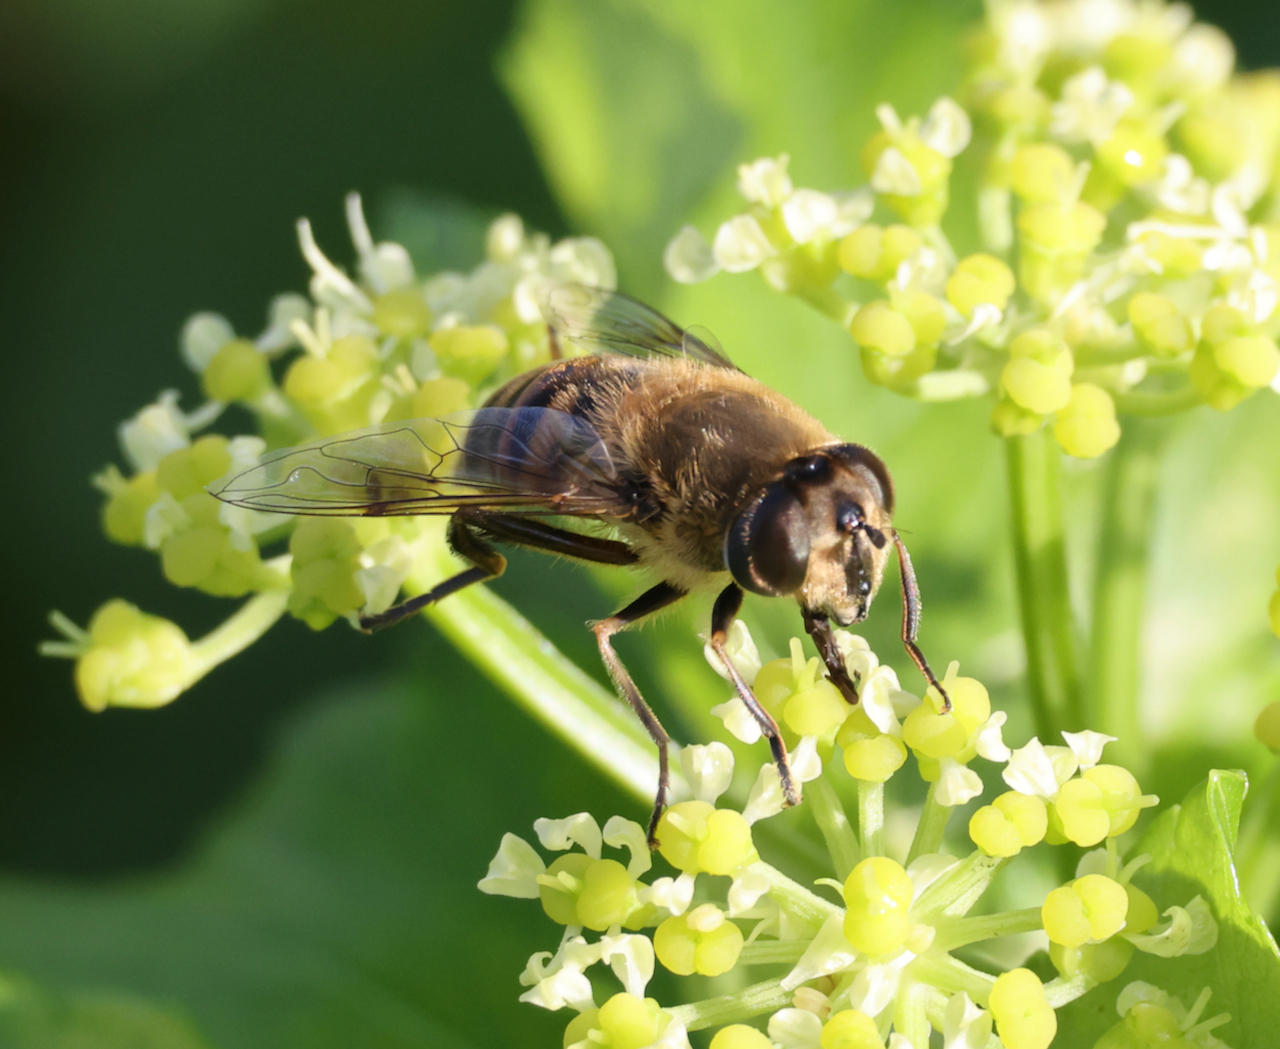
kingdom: Animalia
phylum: Arthropoda
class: Insecta
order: Diptera
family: Syrphidae
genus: Eristalis
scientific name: Eristalis tenax
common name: Drone fly
